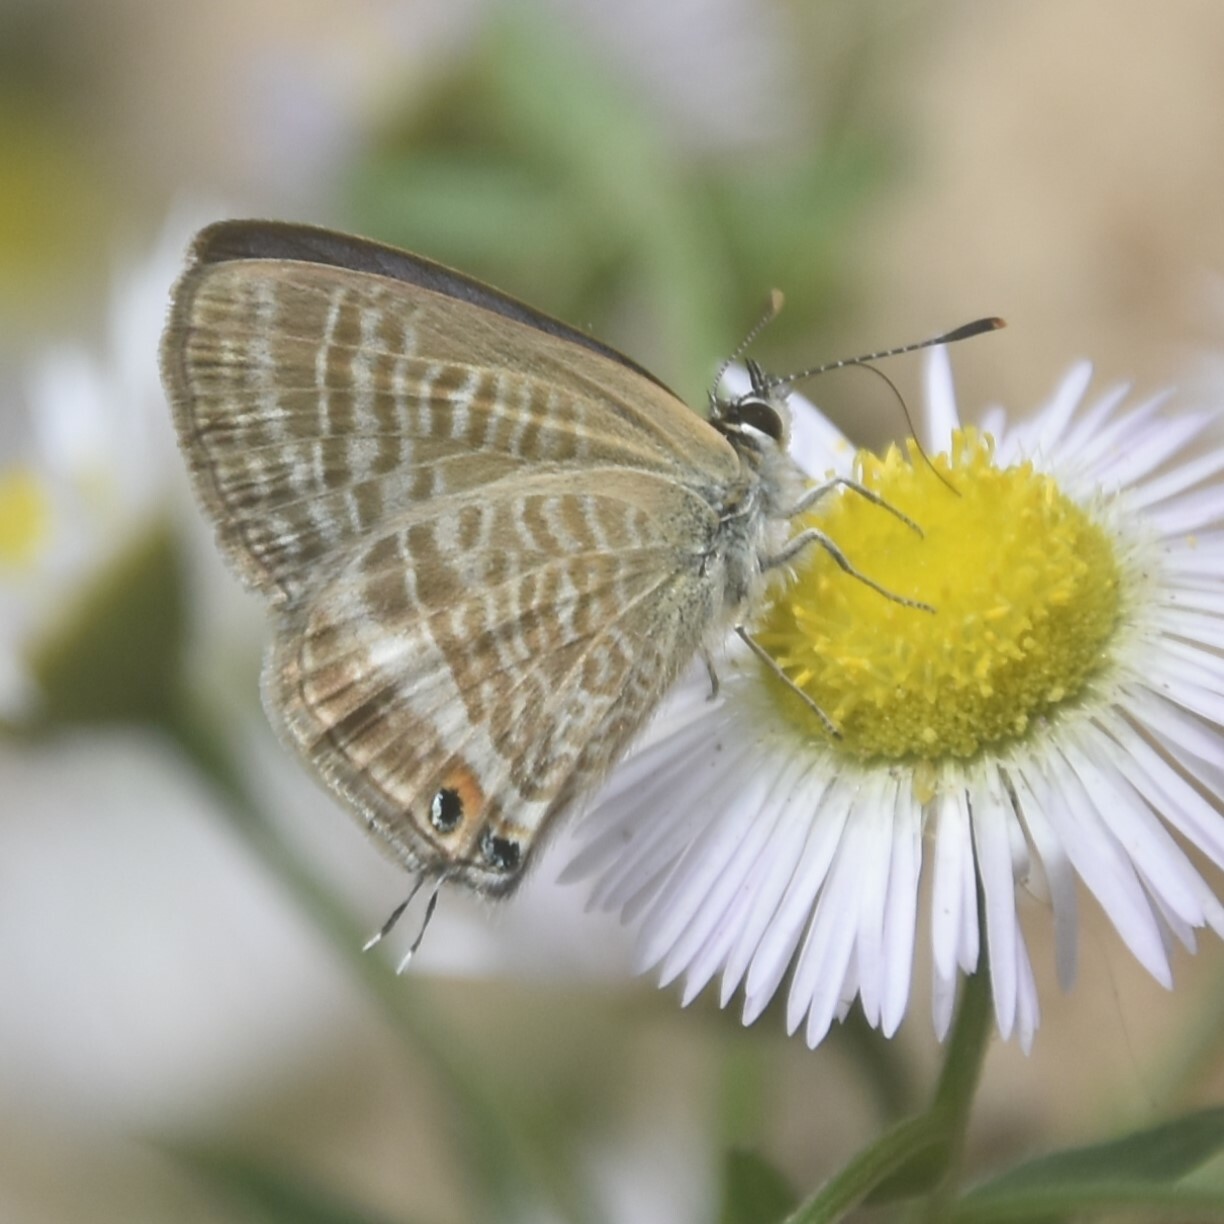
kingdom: Animalia
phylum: Arthropoda
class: Insecta
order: Lepidoptera
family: Lycaenidae
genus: Lampides
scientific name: Lampides boeticus
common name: Long-tailed blue
